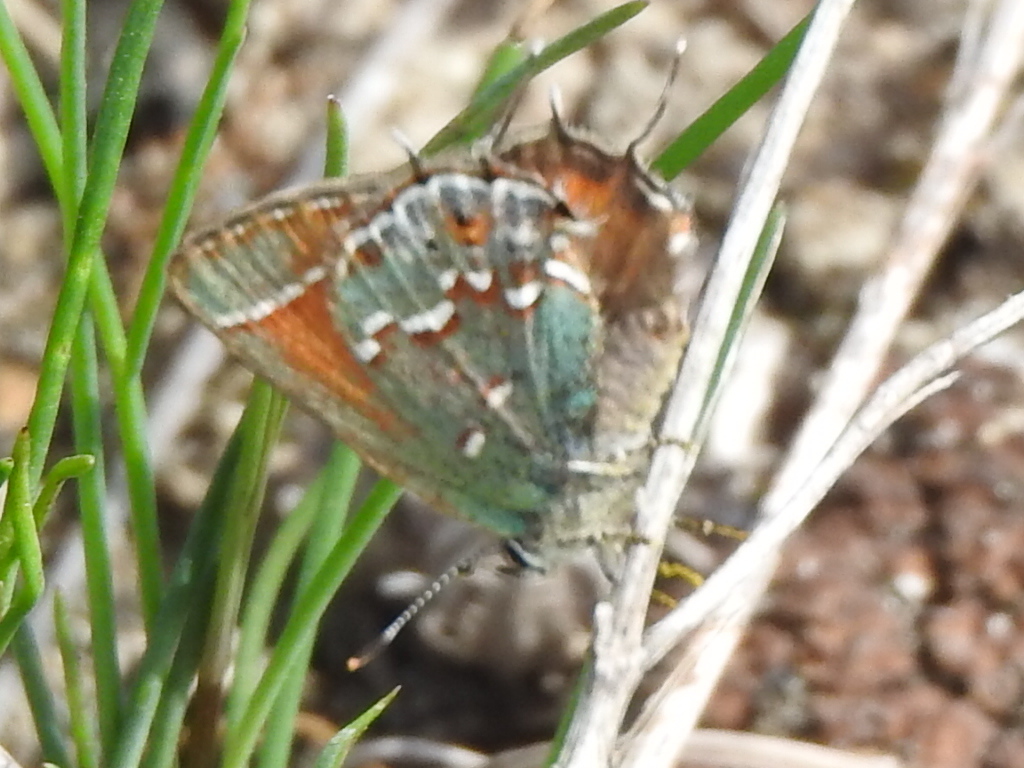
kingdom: Animalia
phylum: Arthropoda
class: Insecta
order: Lepidoptera
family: Lycaenidae
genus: Mitoura
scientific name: Mitoura gryneus
